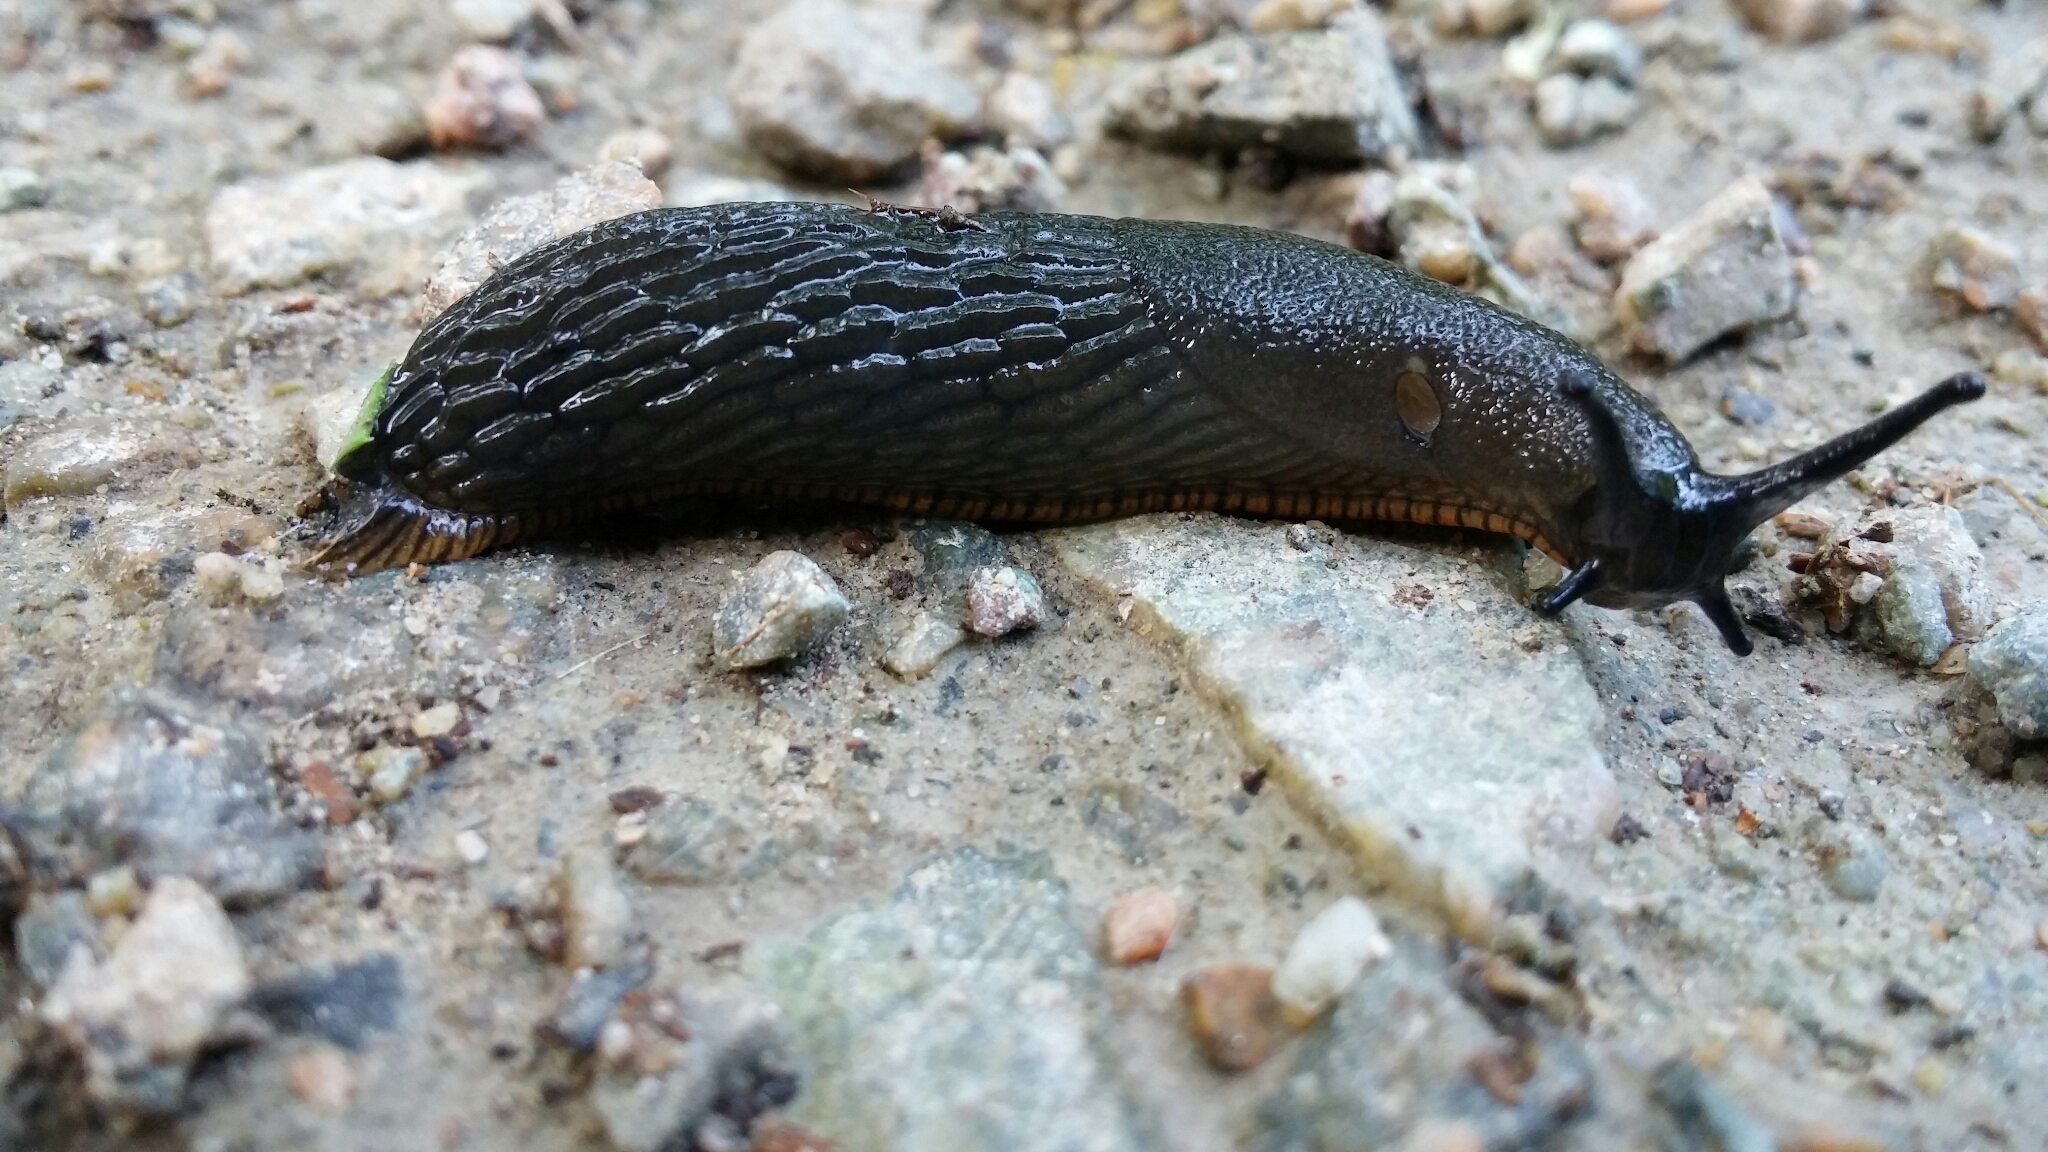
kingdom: Animalia
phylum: Mollusca
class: Gastropoda
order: Stylommatophora
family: Arionidae
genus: Arion
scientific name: Arion rufus
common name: Chocolate arion
